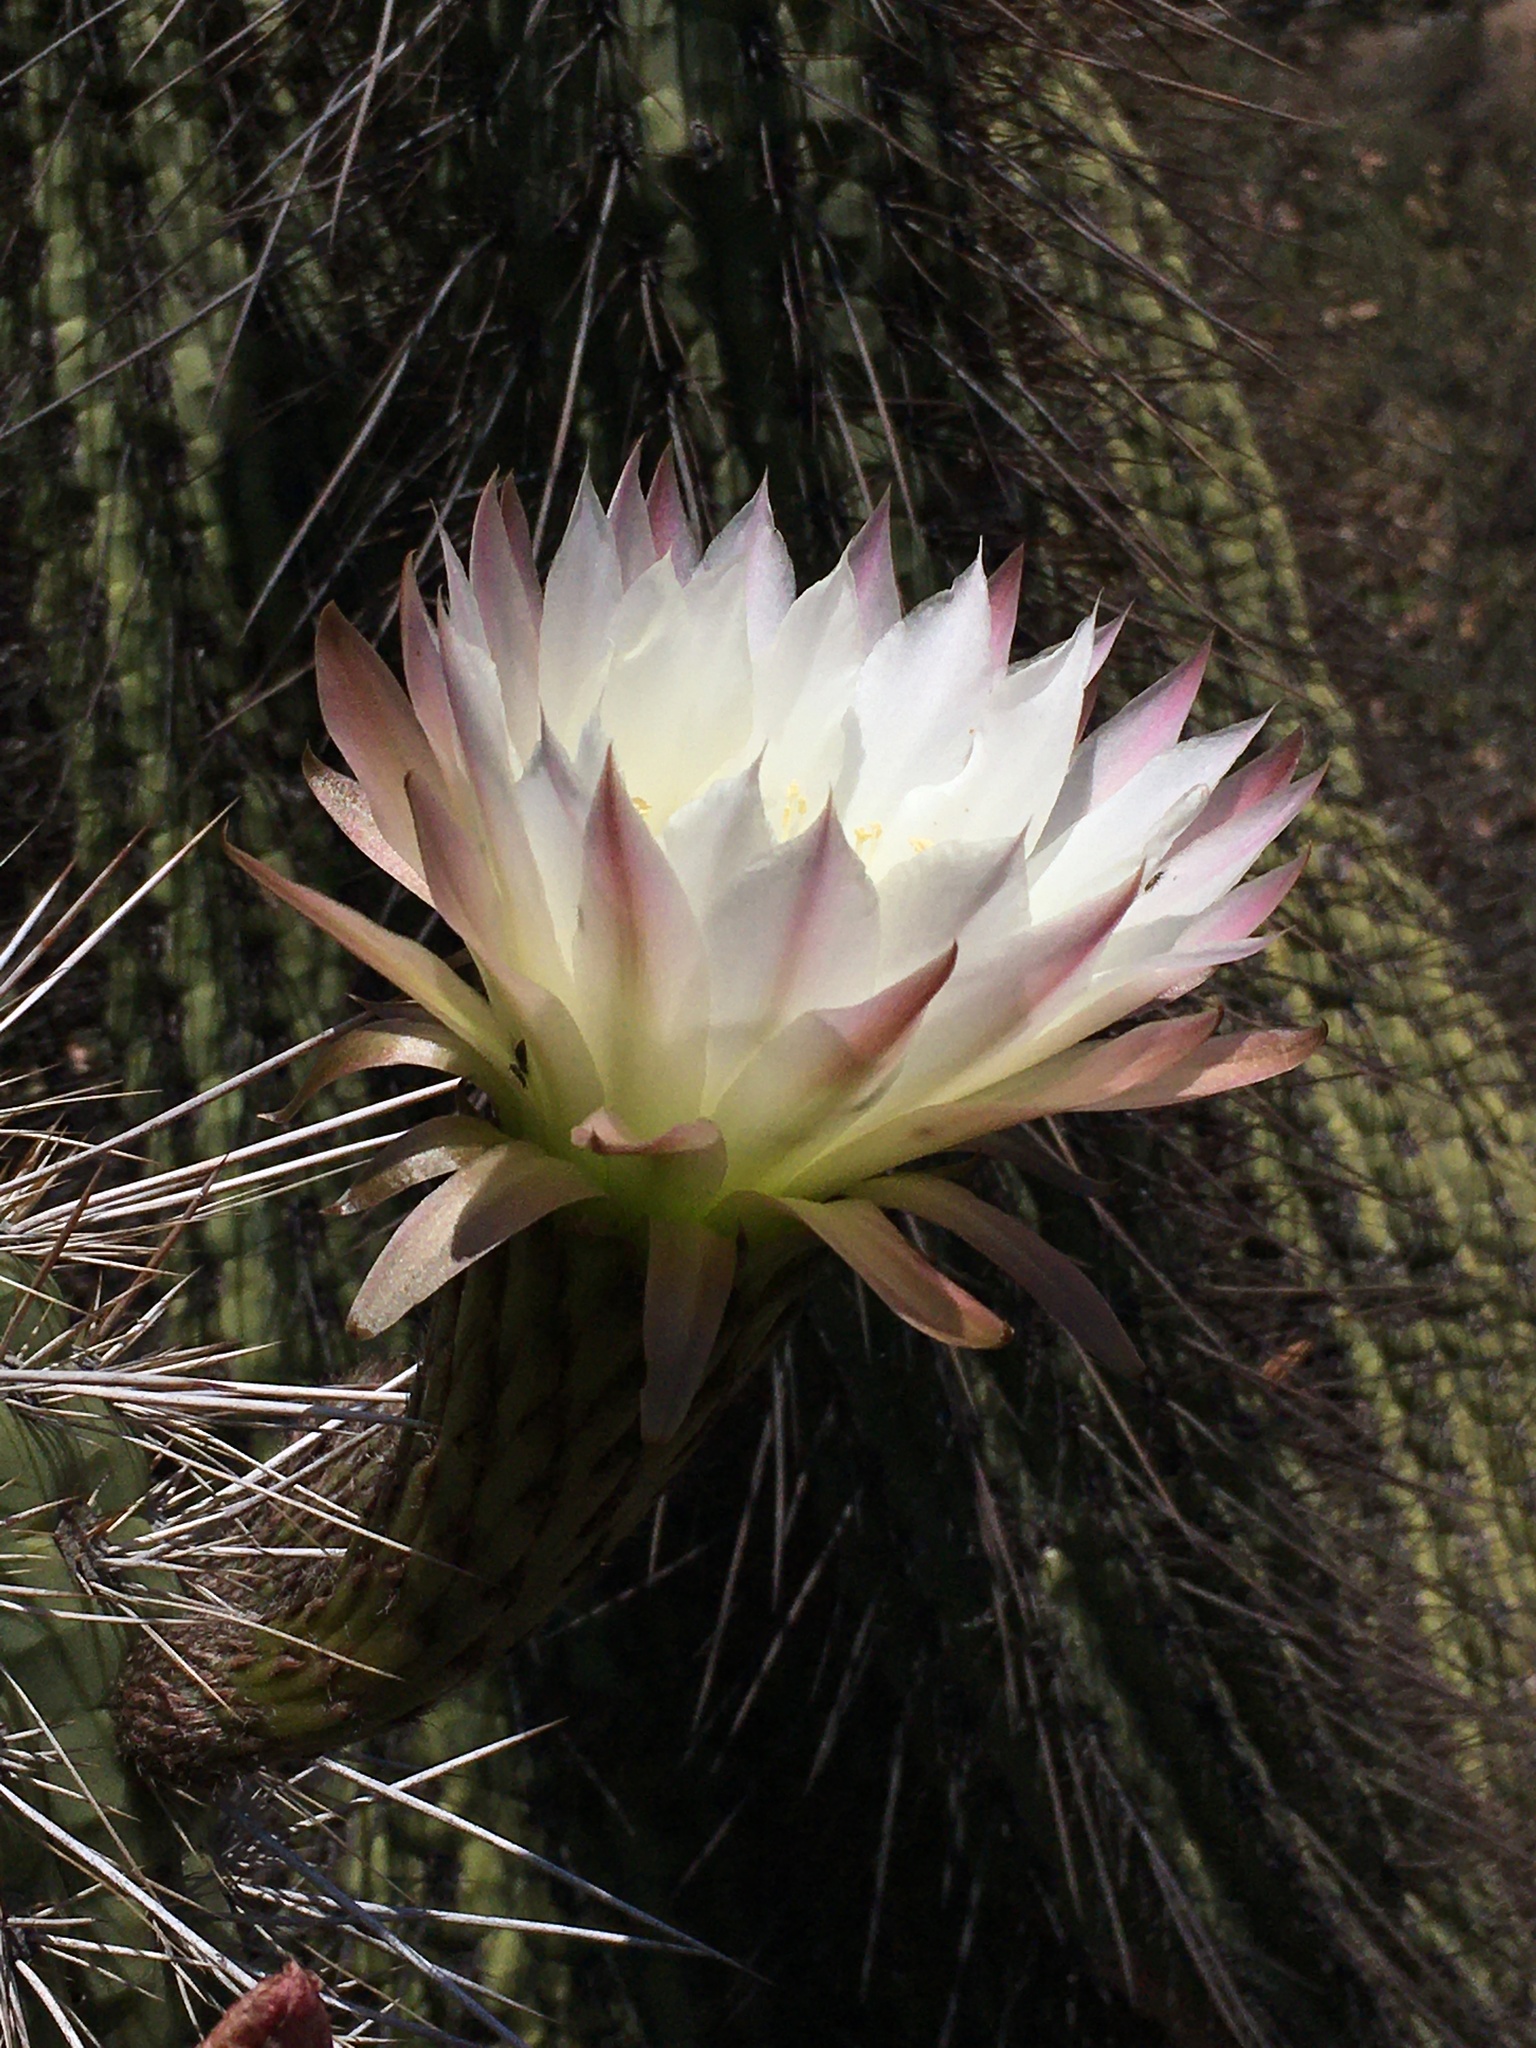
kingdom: Plantae
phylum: Tracheophyta
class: Magnoliopsida
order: Caryophyllales
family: Cactaceae
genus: Leucostele
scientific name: Leucostele chiloensis
